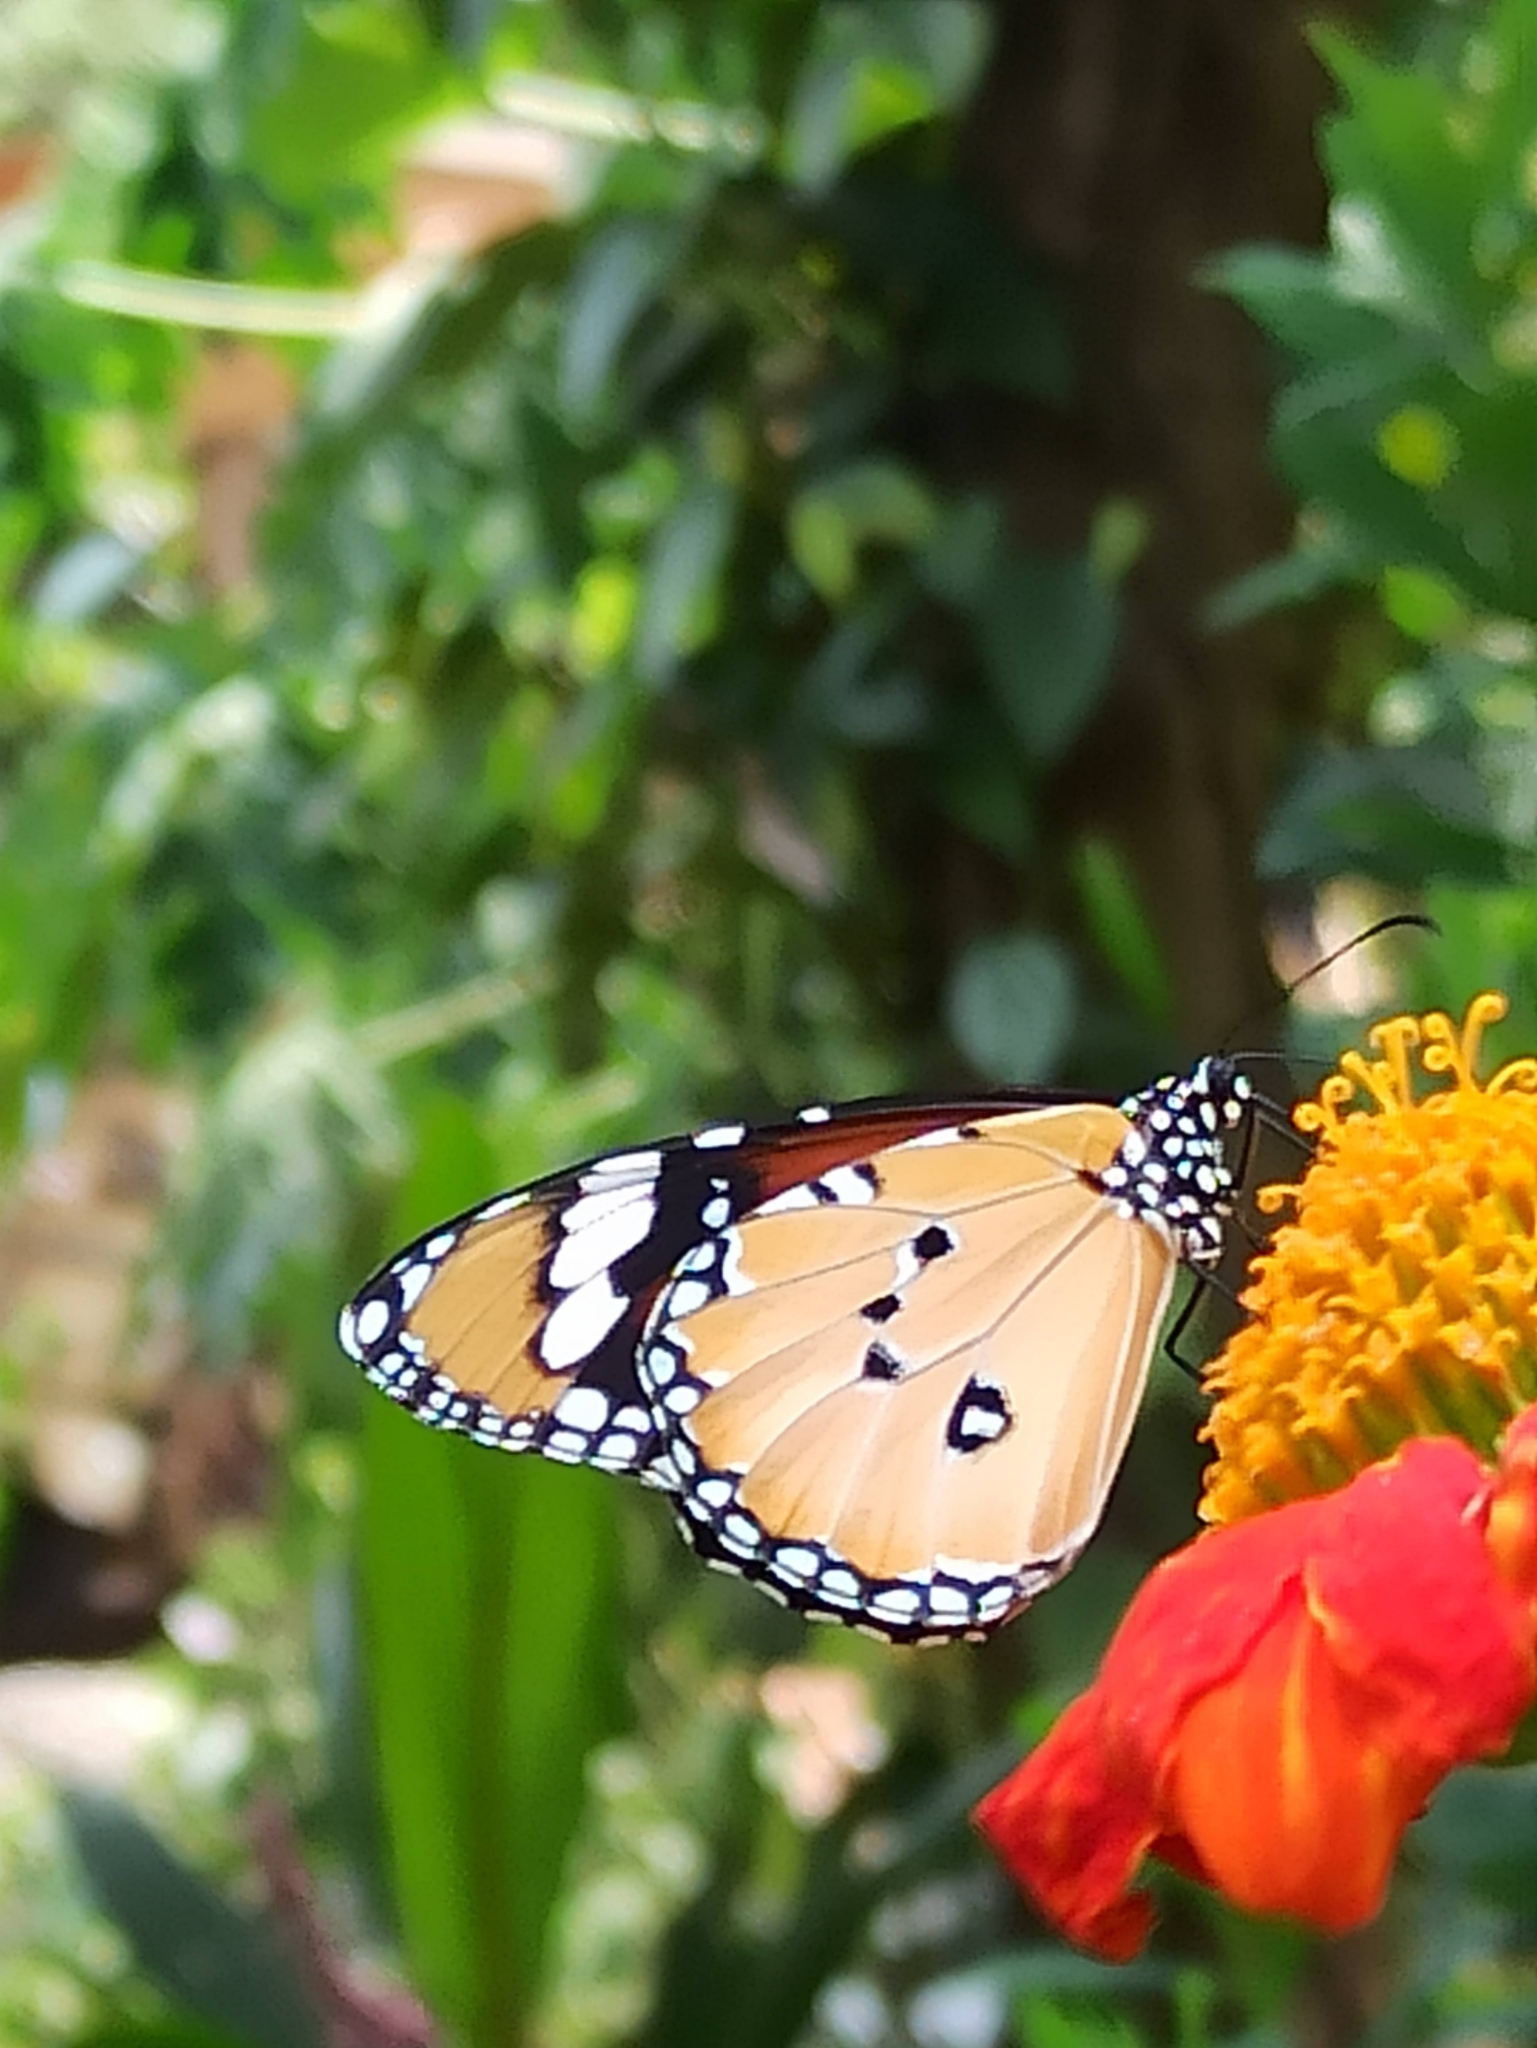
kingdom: Animalia
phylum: Arthropoda
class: Insecta
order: Lepidoptera
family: Nymphalidae
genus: Danaus
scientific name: Danaus chrysippus
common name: Plain tiger
